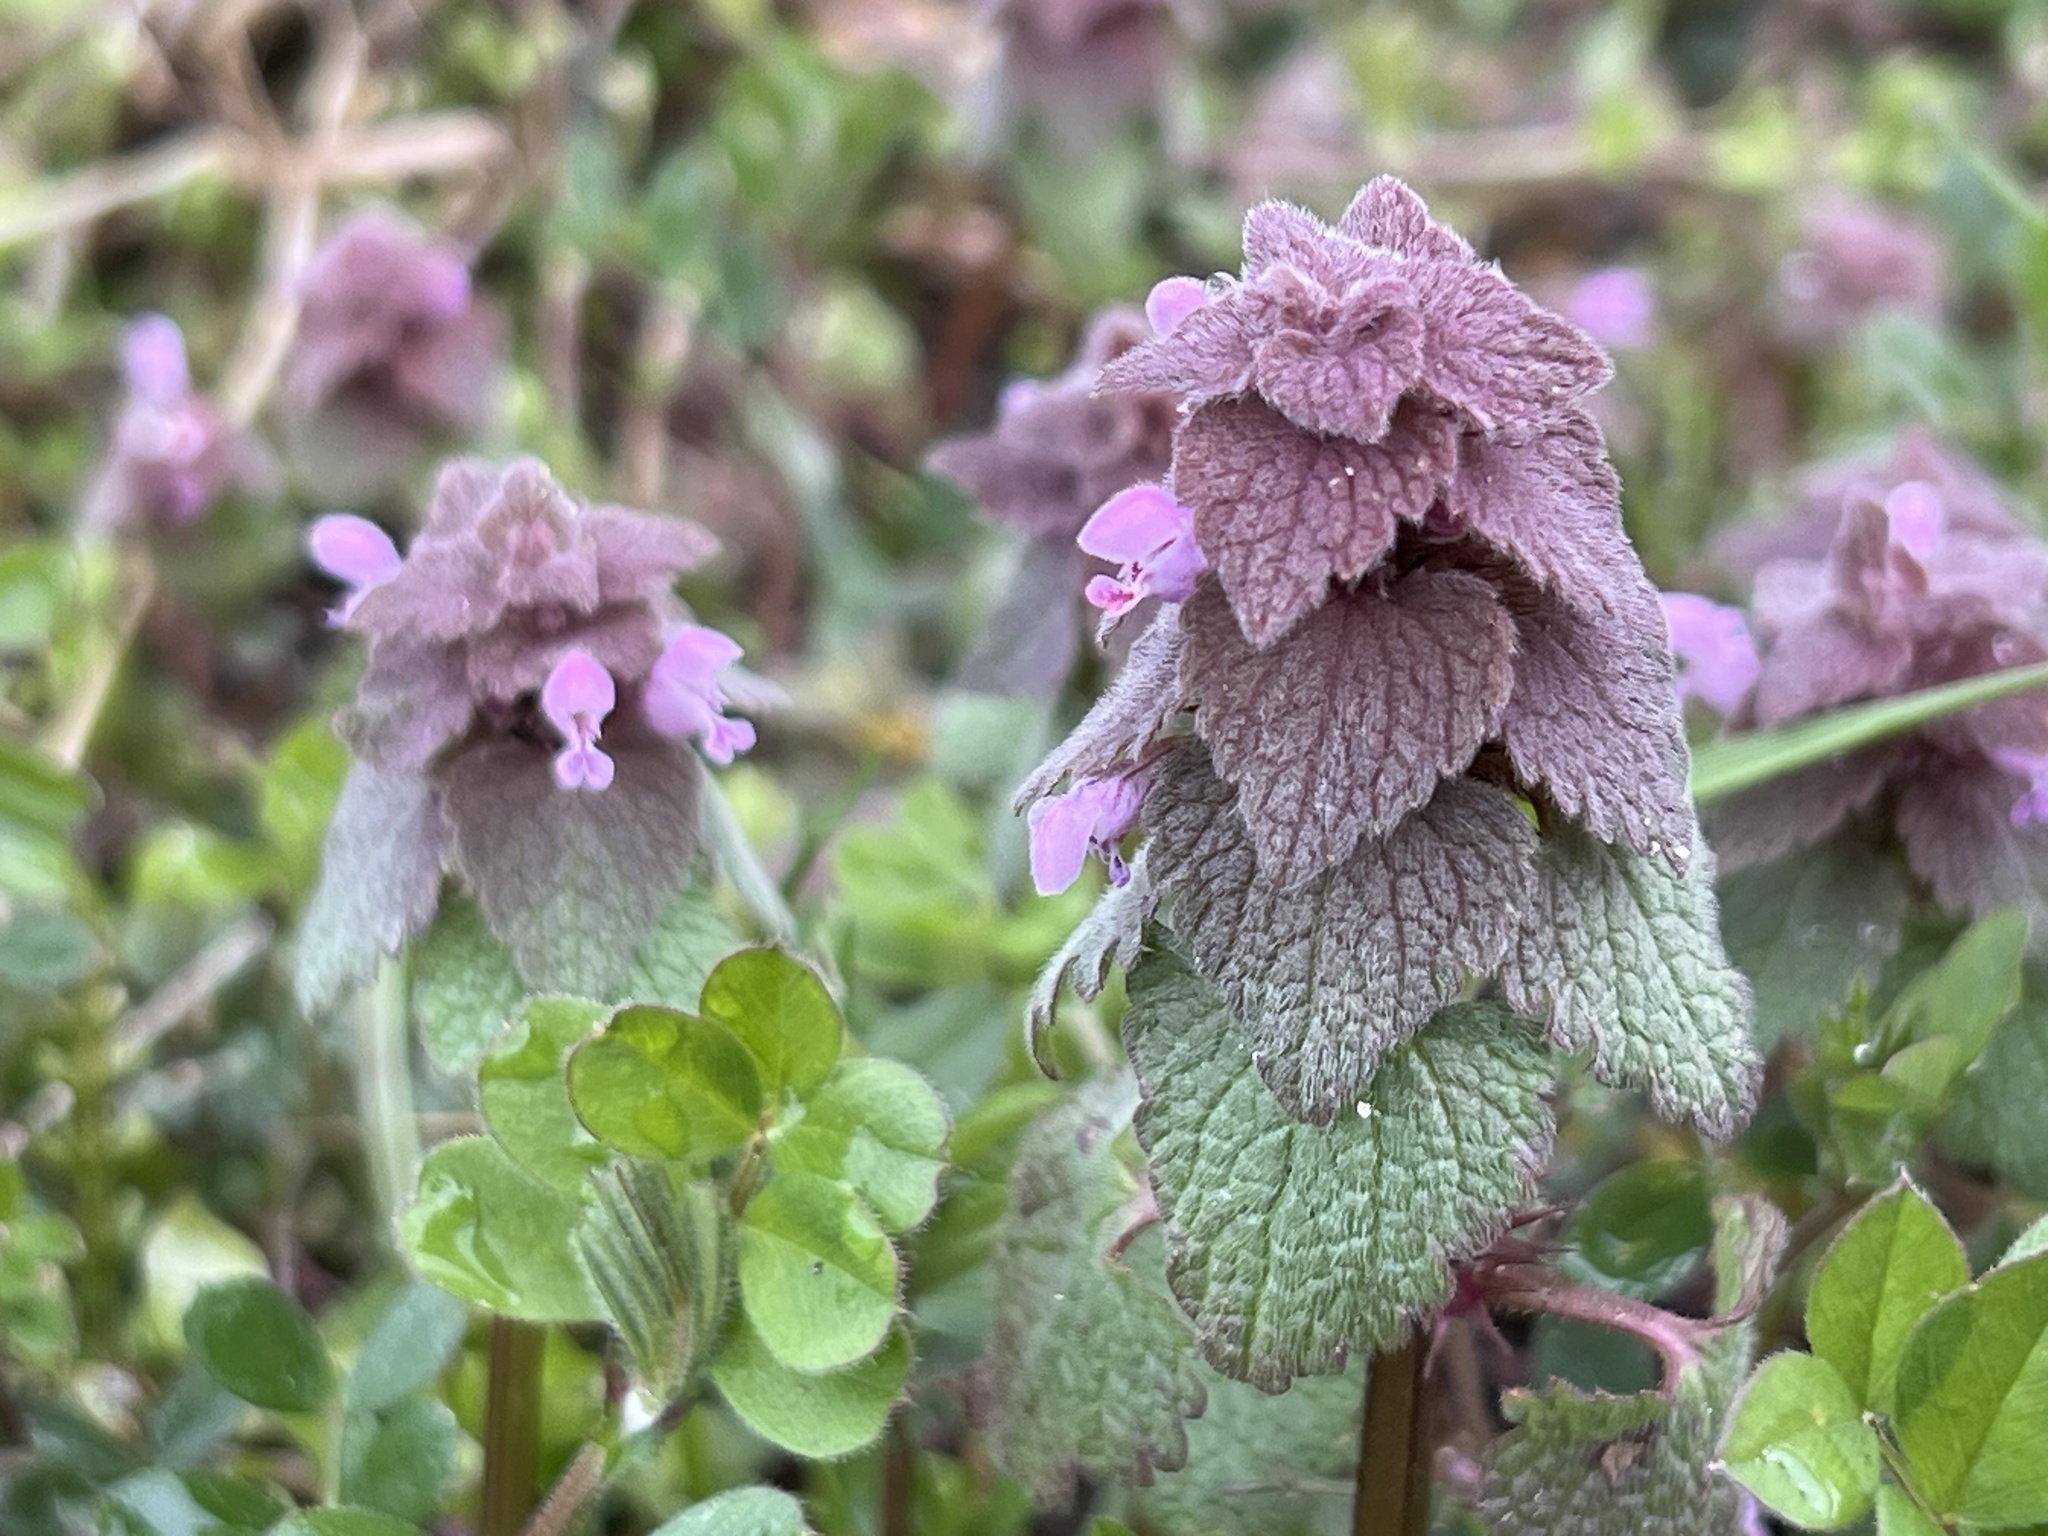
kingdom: Plantae
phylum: Tracheophyta
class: Magnoliopsida
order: Lamiales
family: Lamiaceae
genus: Lamium
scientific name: Lamium purpureum
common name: Red dead-nettle
